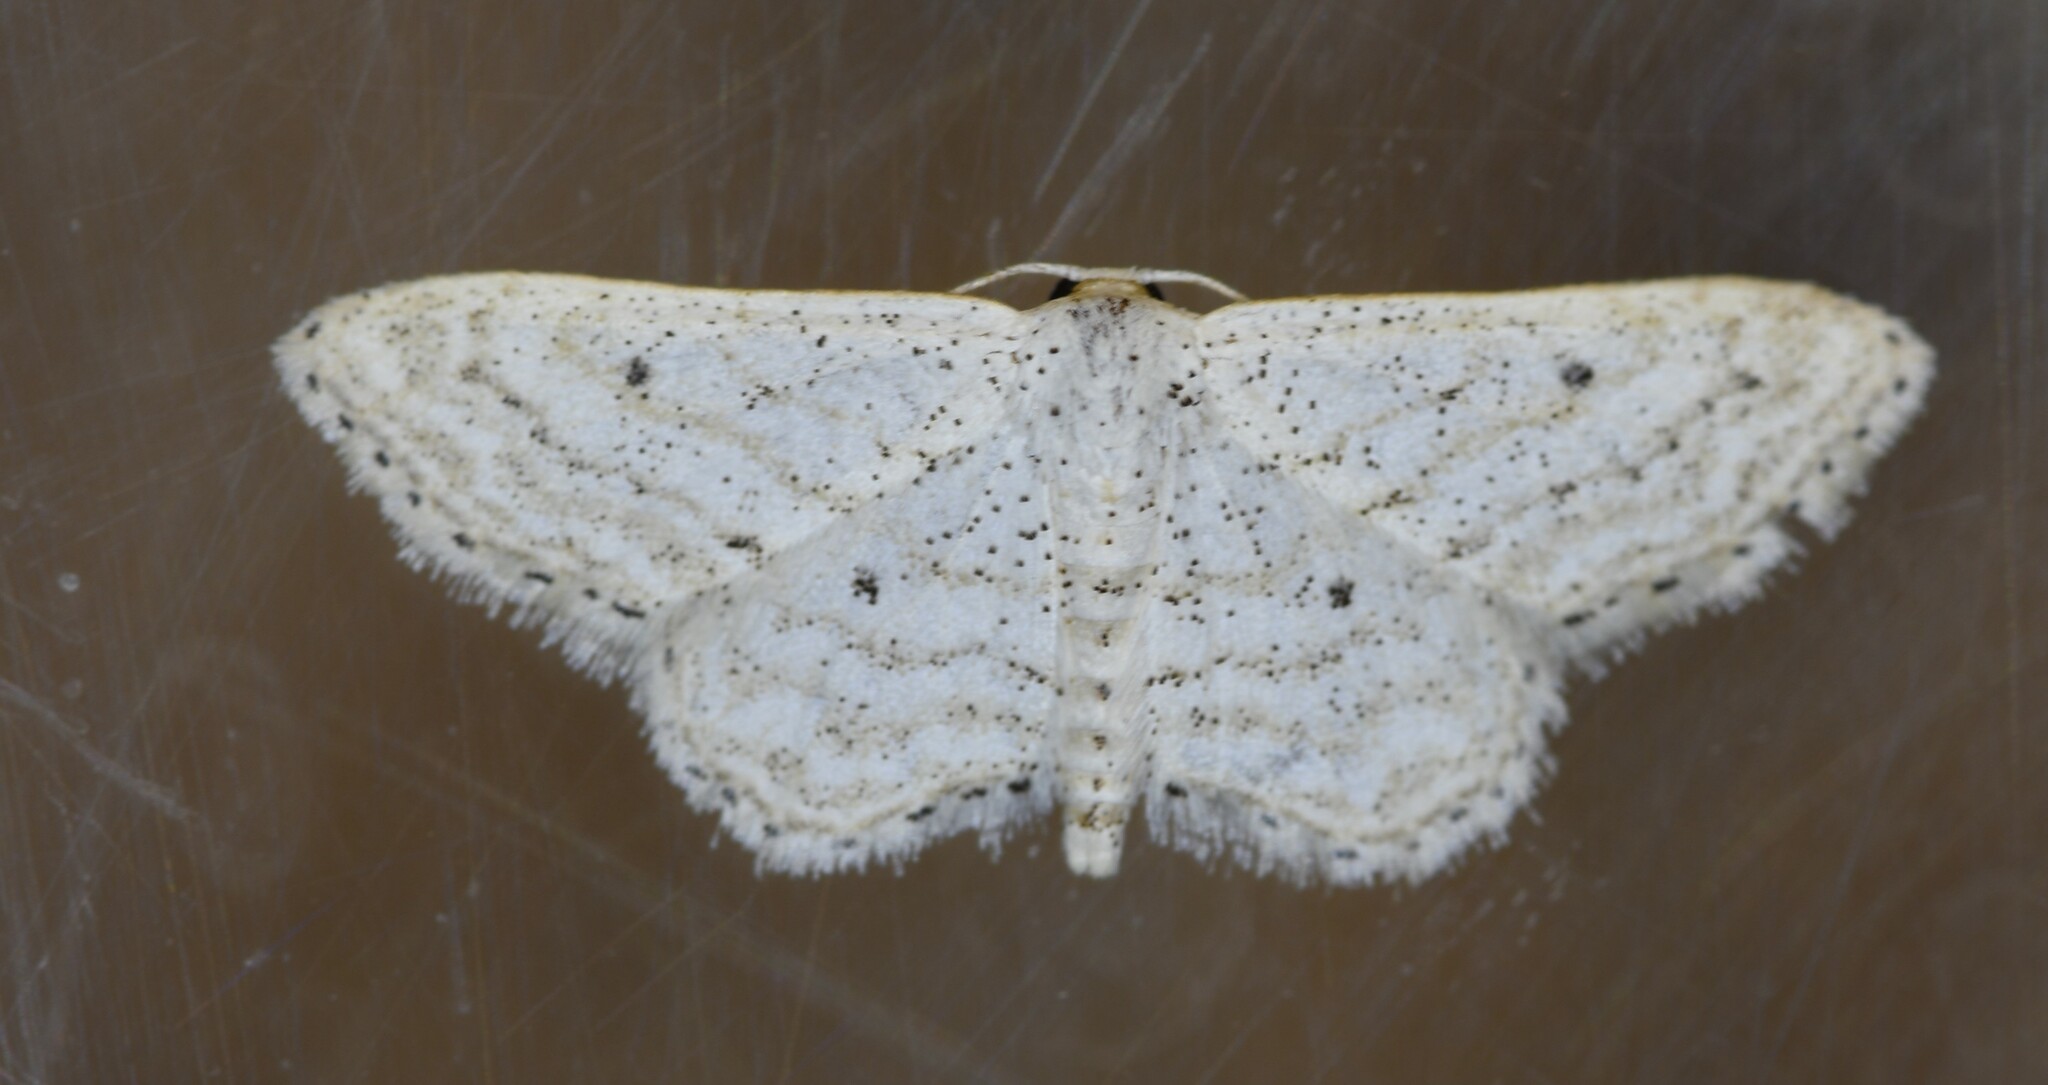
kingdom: Animalia
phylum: Arthropoda
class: Insecta
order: Lepidoptera
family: Geometridae
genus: Idaea
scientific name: Idaea elongaria
